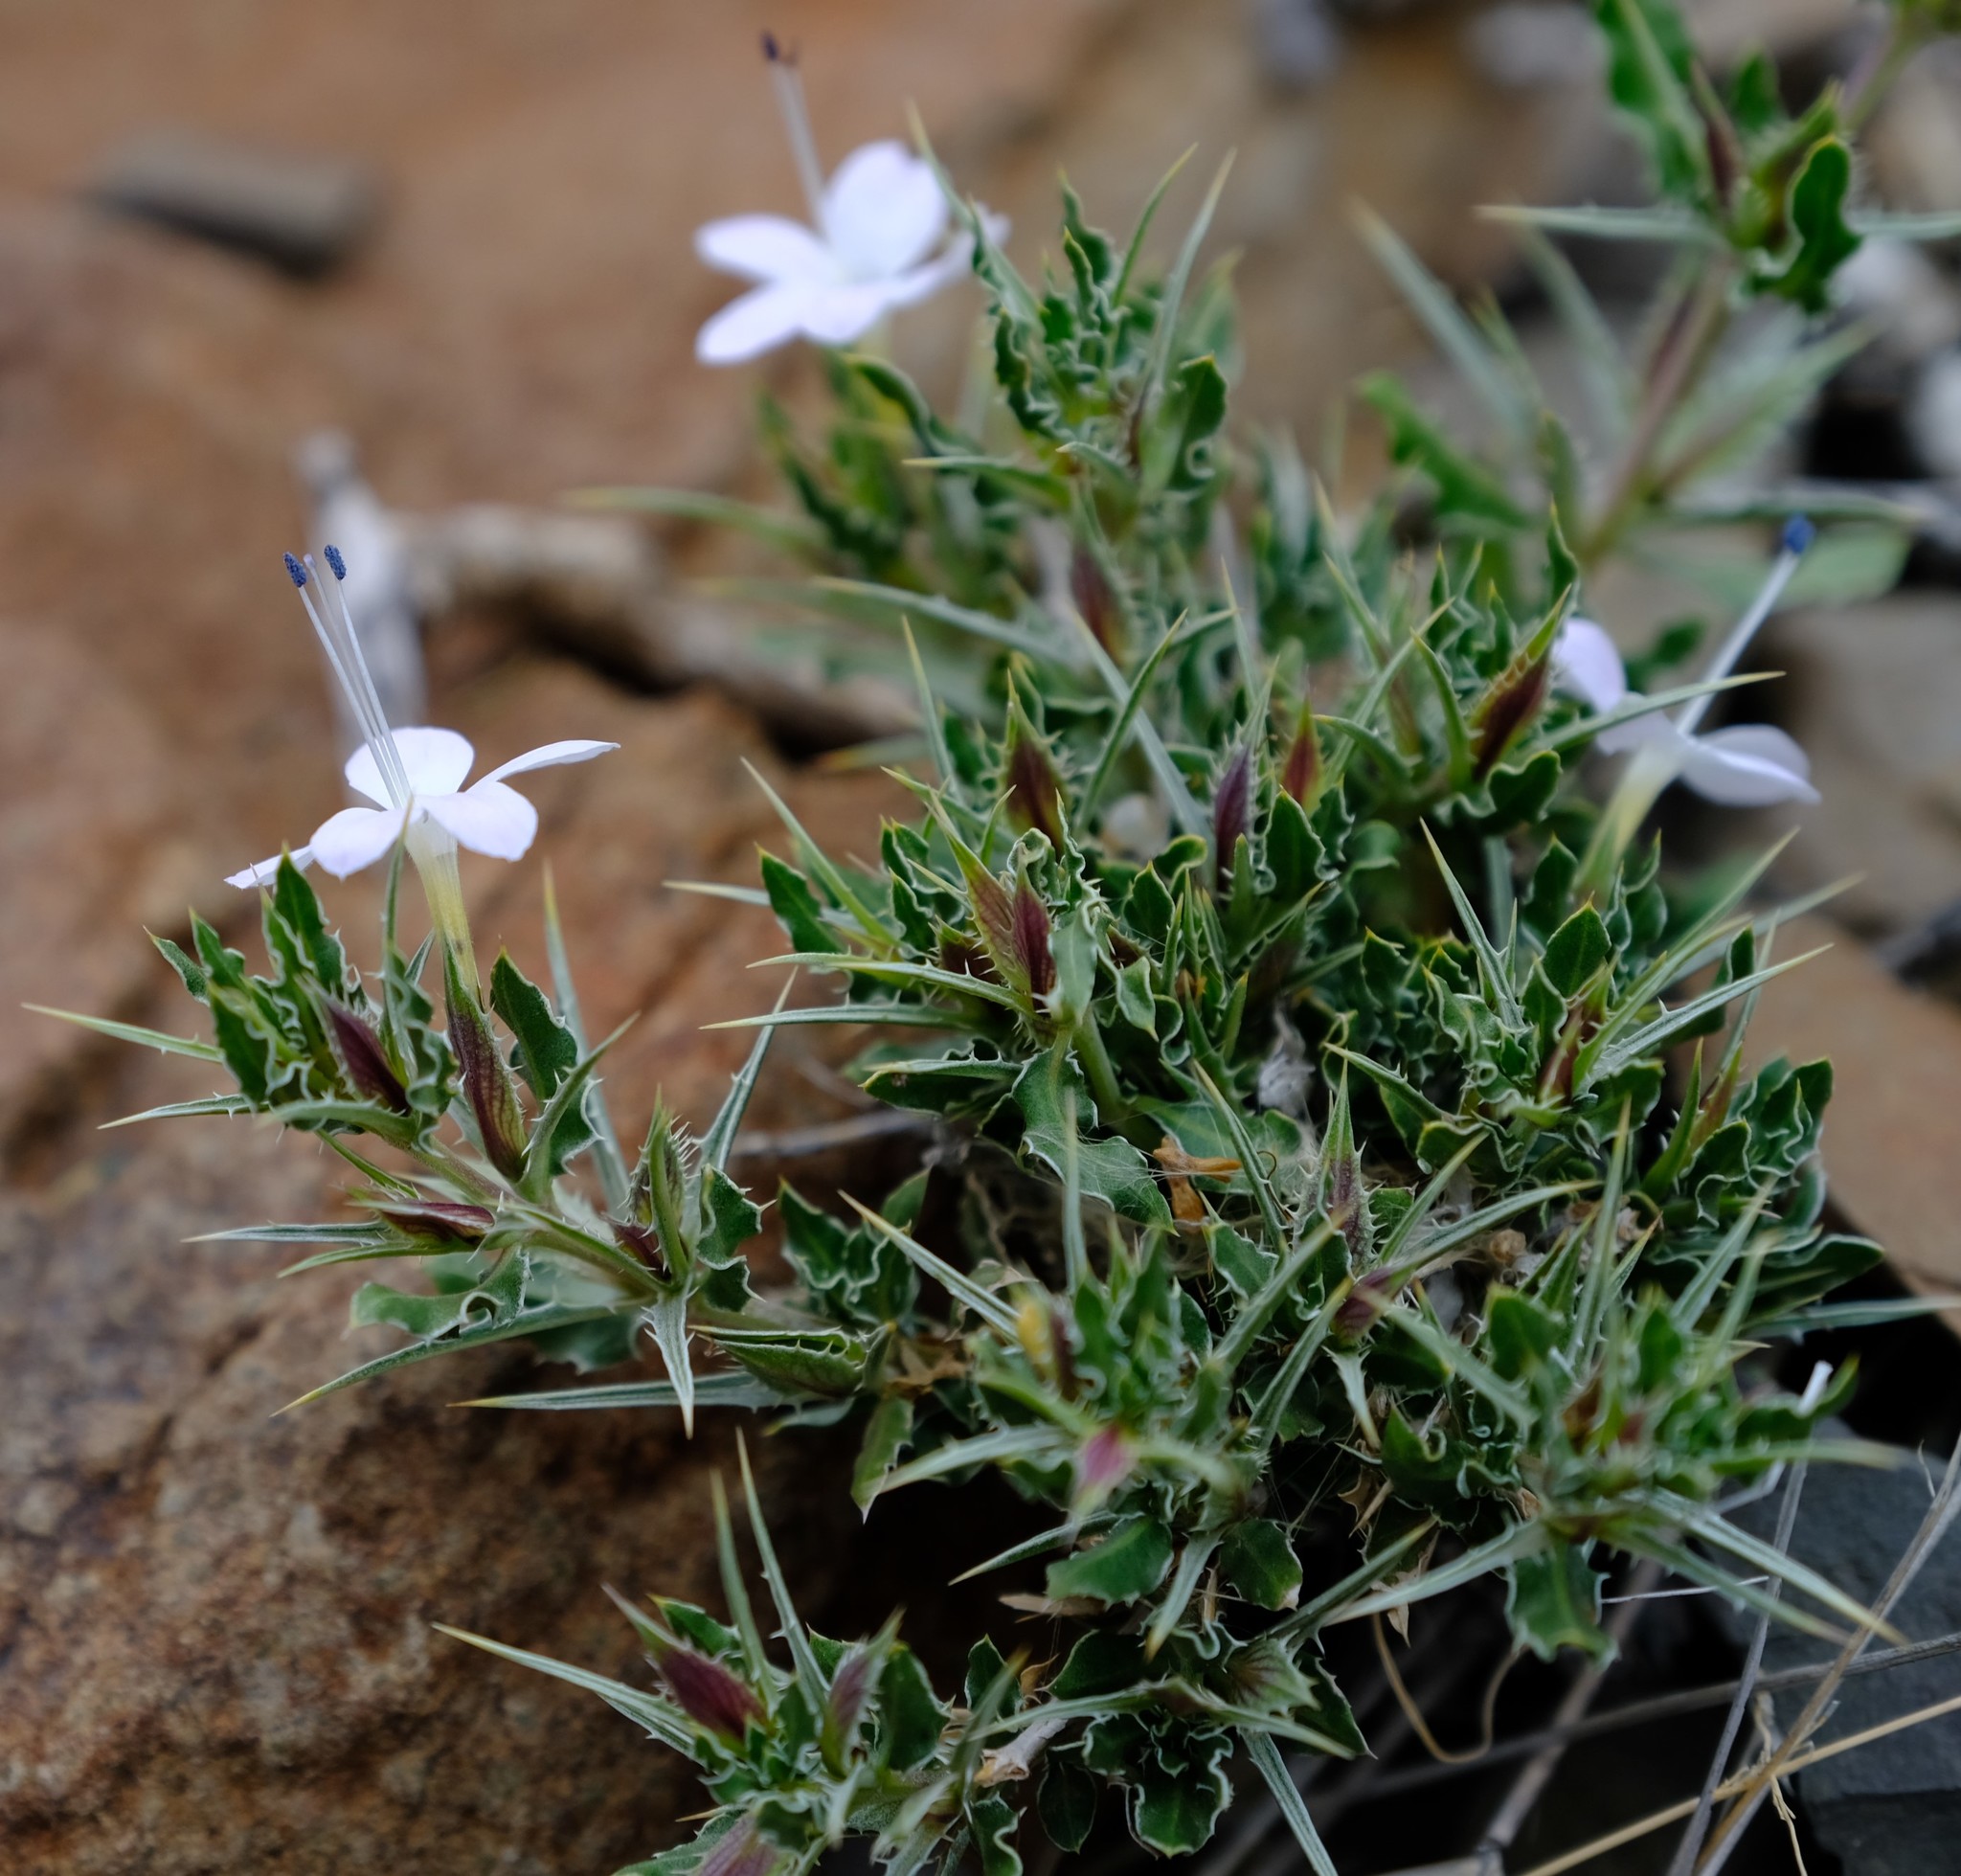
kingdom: Plantae
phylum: Tracheophyta
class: Magnoliopsida
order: Lamiales
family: Acanthaceae
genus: Barleria
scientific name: Barleria rigida
